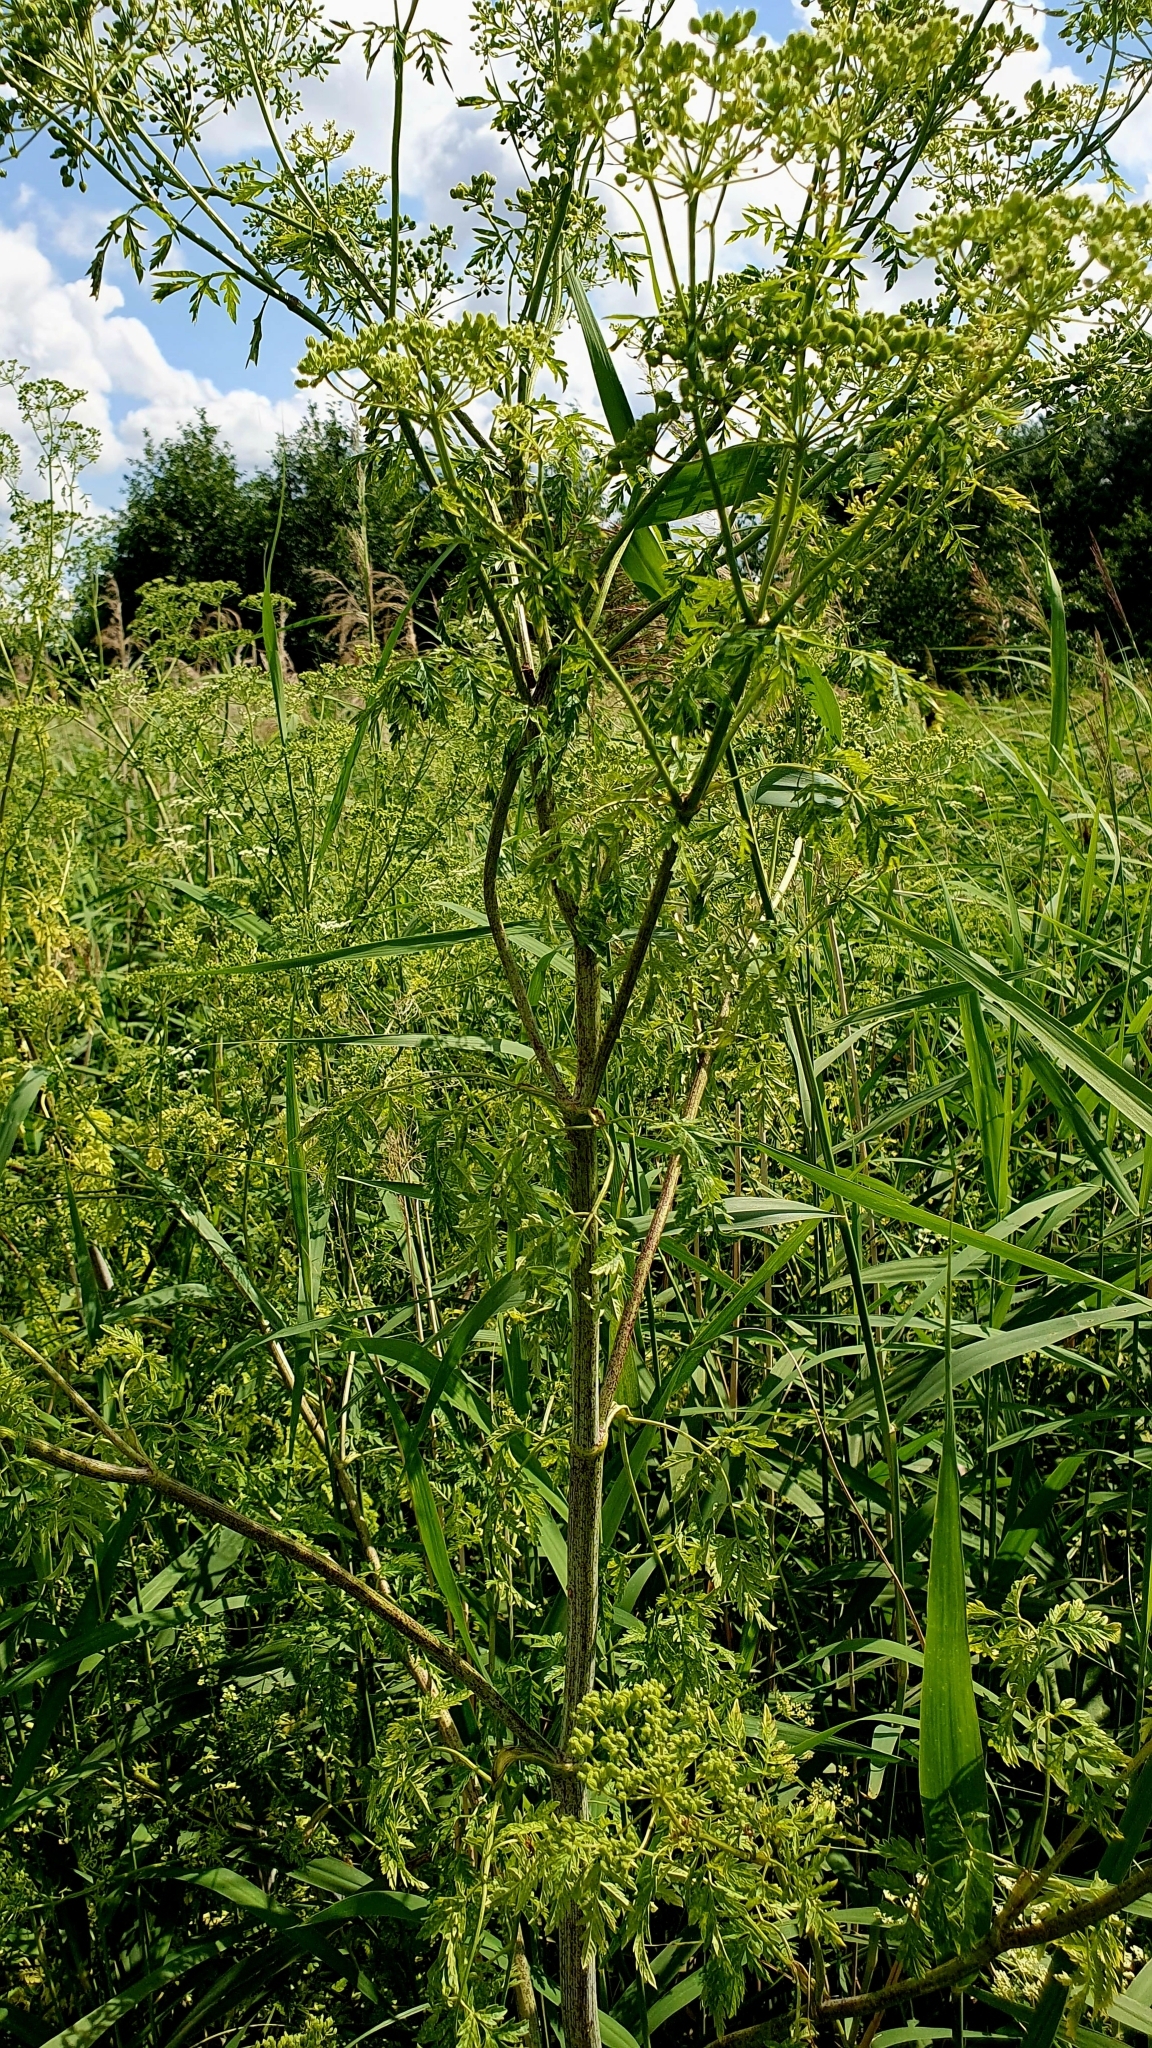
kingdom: Plantae
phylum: Tracheophyta
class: Magnoliopsida
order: Apiales
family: Apiaceae
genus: Conium
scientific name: Conium maculatum
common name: Hemlock
